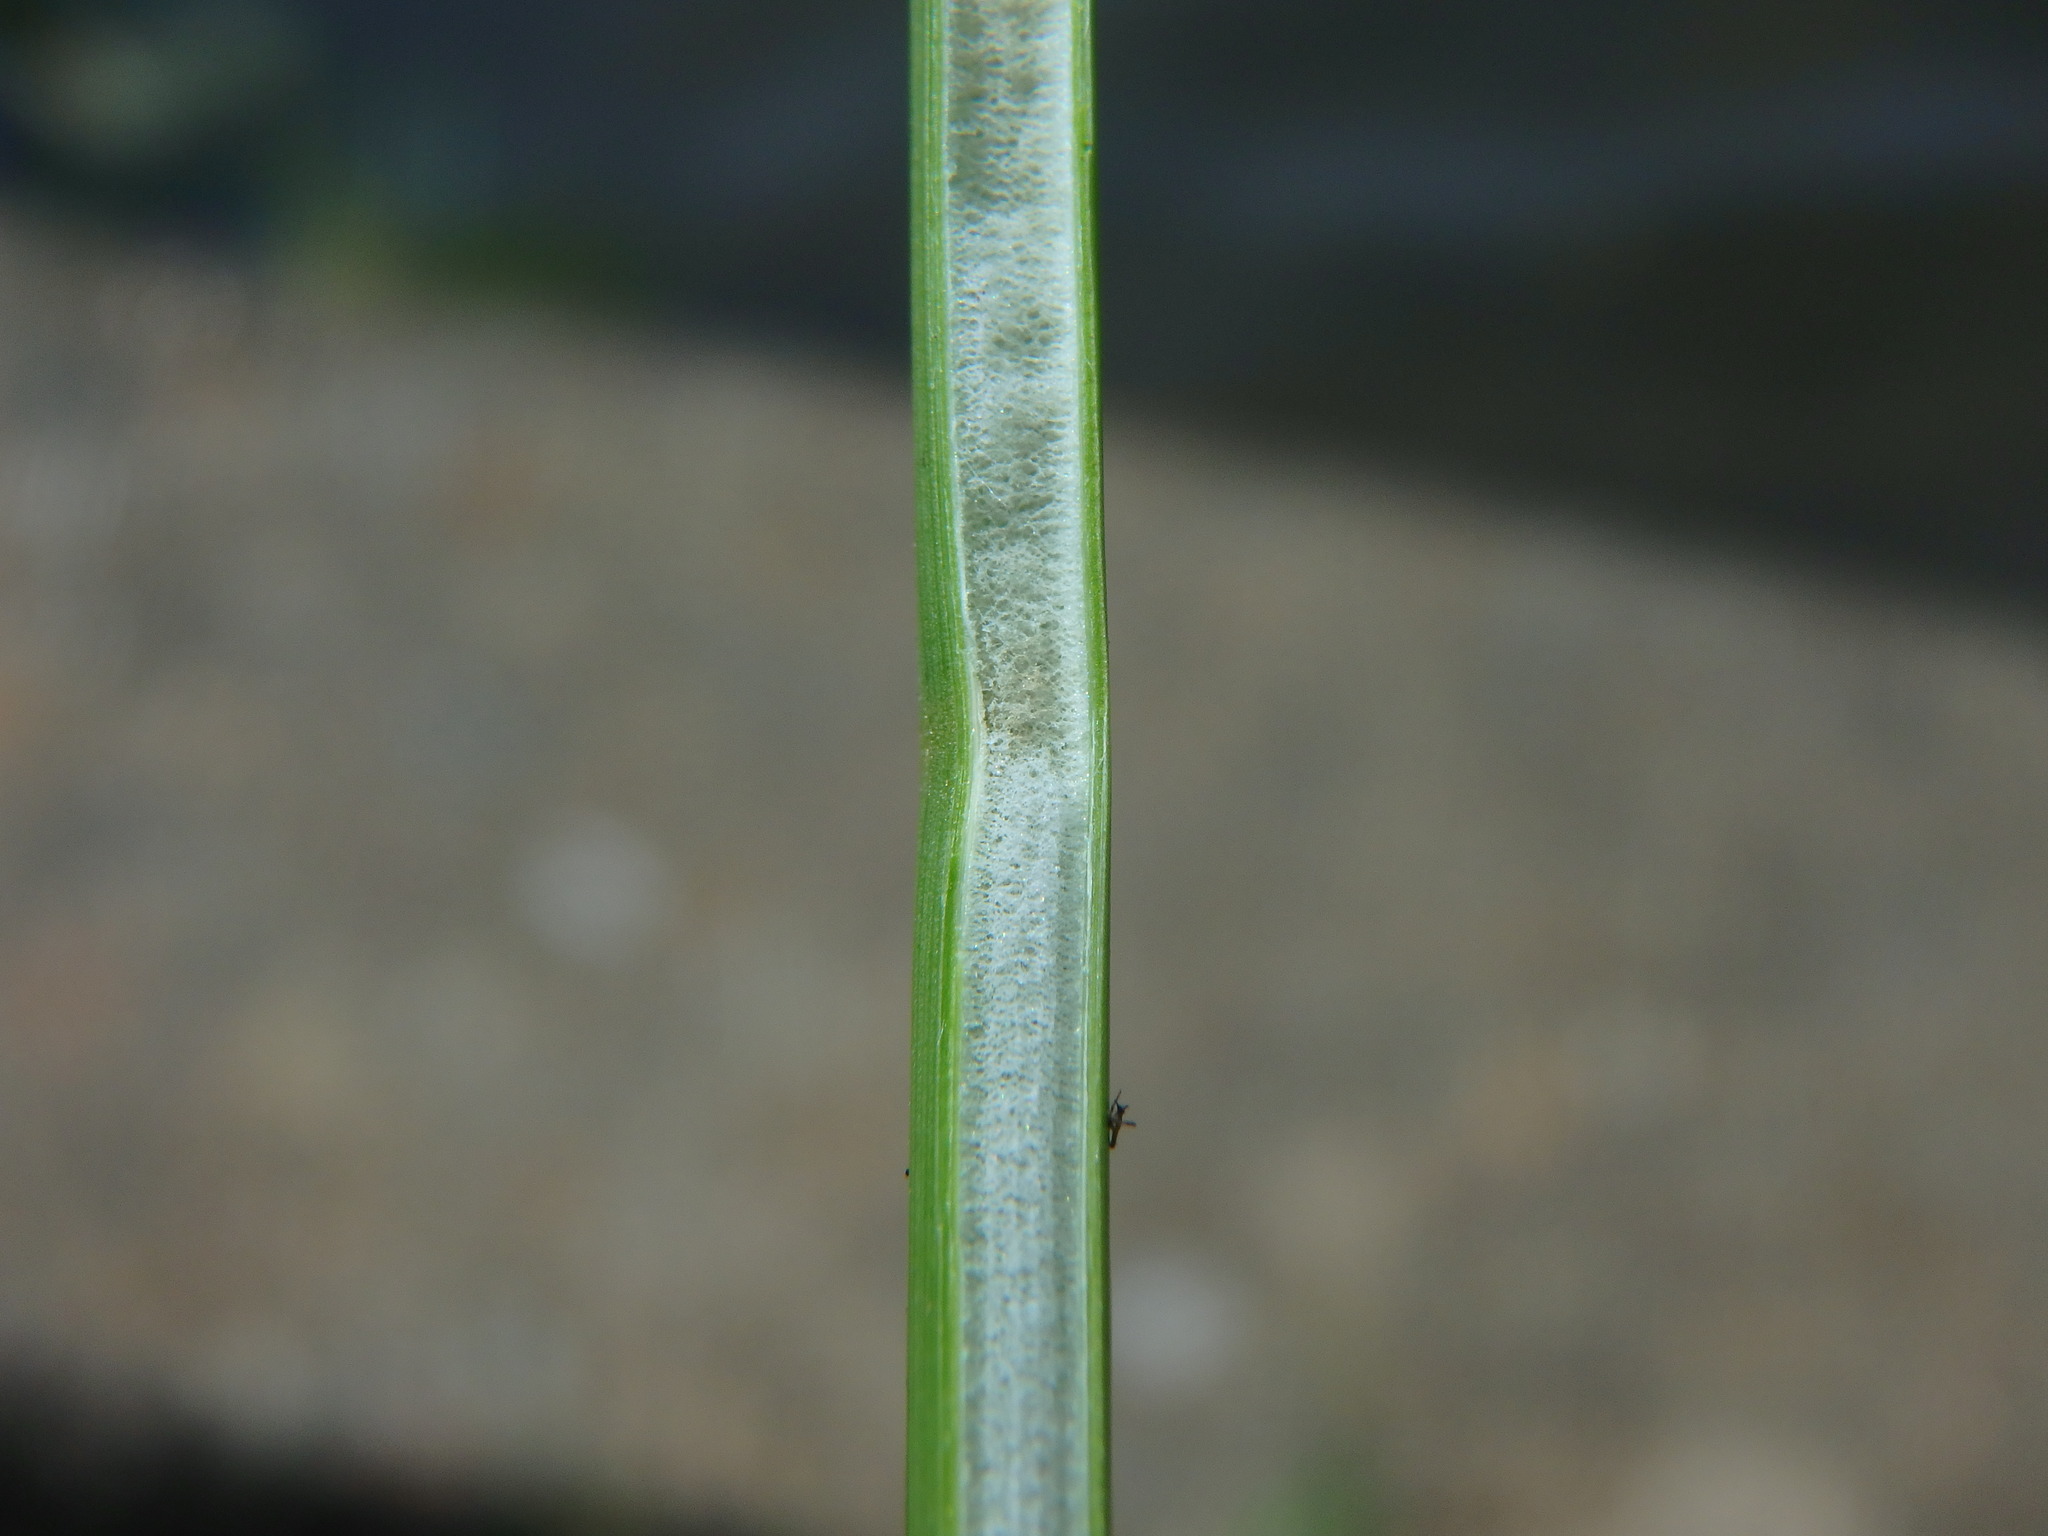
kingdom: Plantae
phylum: Tracheophyta
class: Liliopsida
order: Poales
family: Juncaceae
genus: Juncus
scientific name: Juncus effusus
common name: Soft rush
